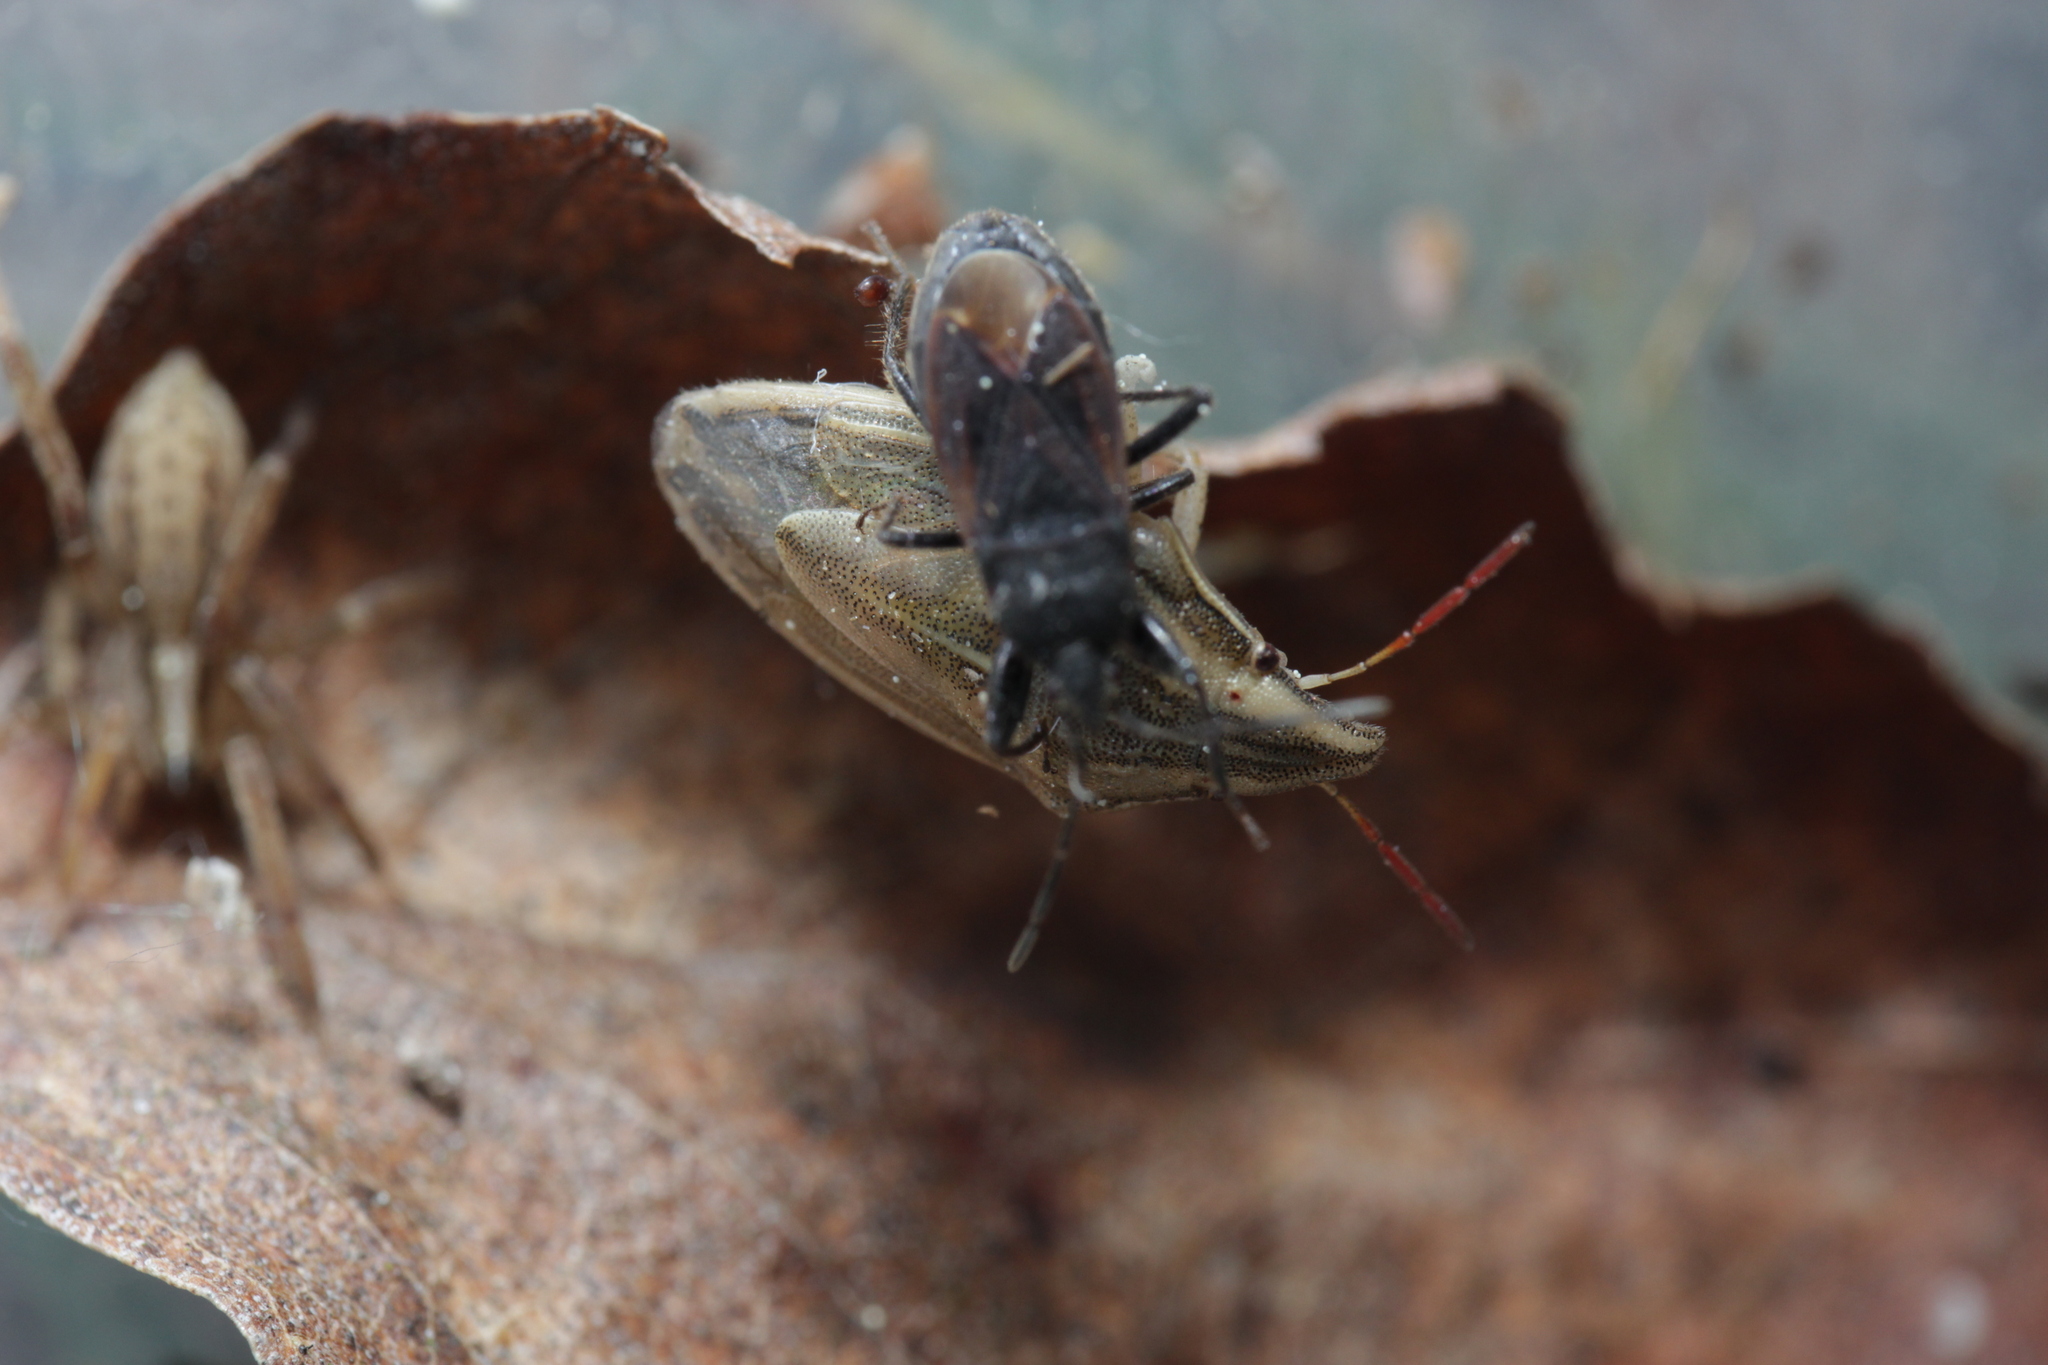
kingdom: Animalia
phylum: Arthropoda
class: Insecta
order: Hemiptera
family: Pentatomidae
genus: Aelia
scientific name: Aelia acuminata
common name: Bishop's mitre
